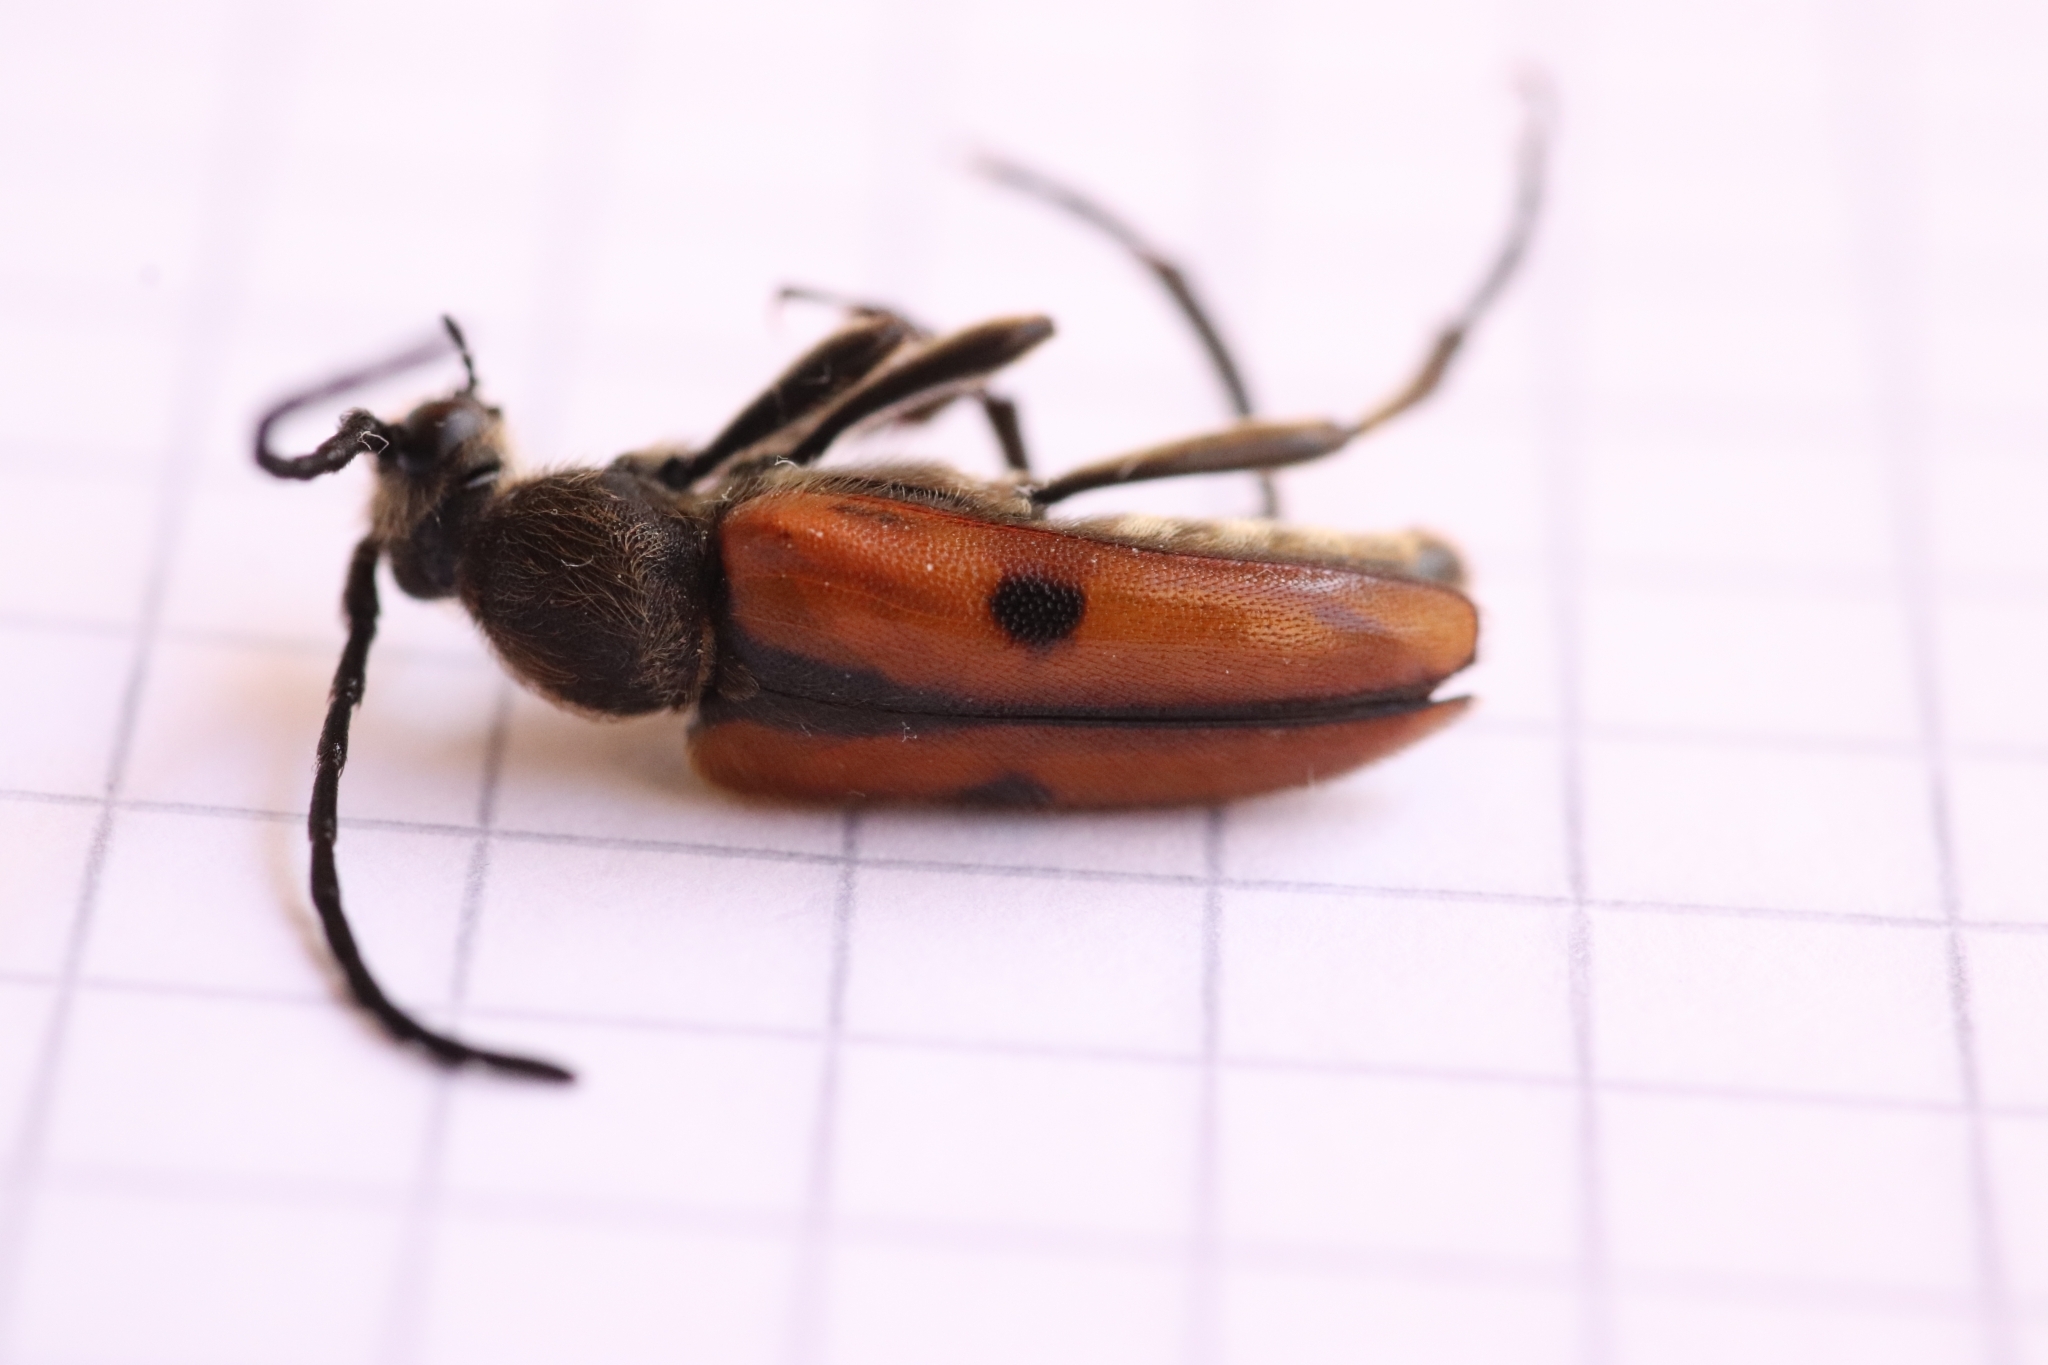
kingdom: Animalia
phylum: Arthropoda
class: Insecta
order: Coleoptera
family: Cerambycidae
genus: Vadonia
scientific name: Vadonia unipunctata
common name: Long-horned beetle
